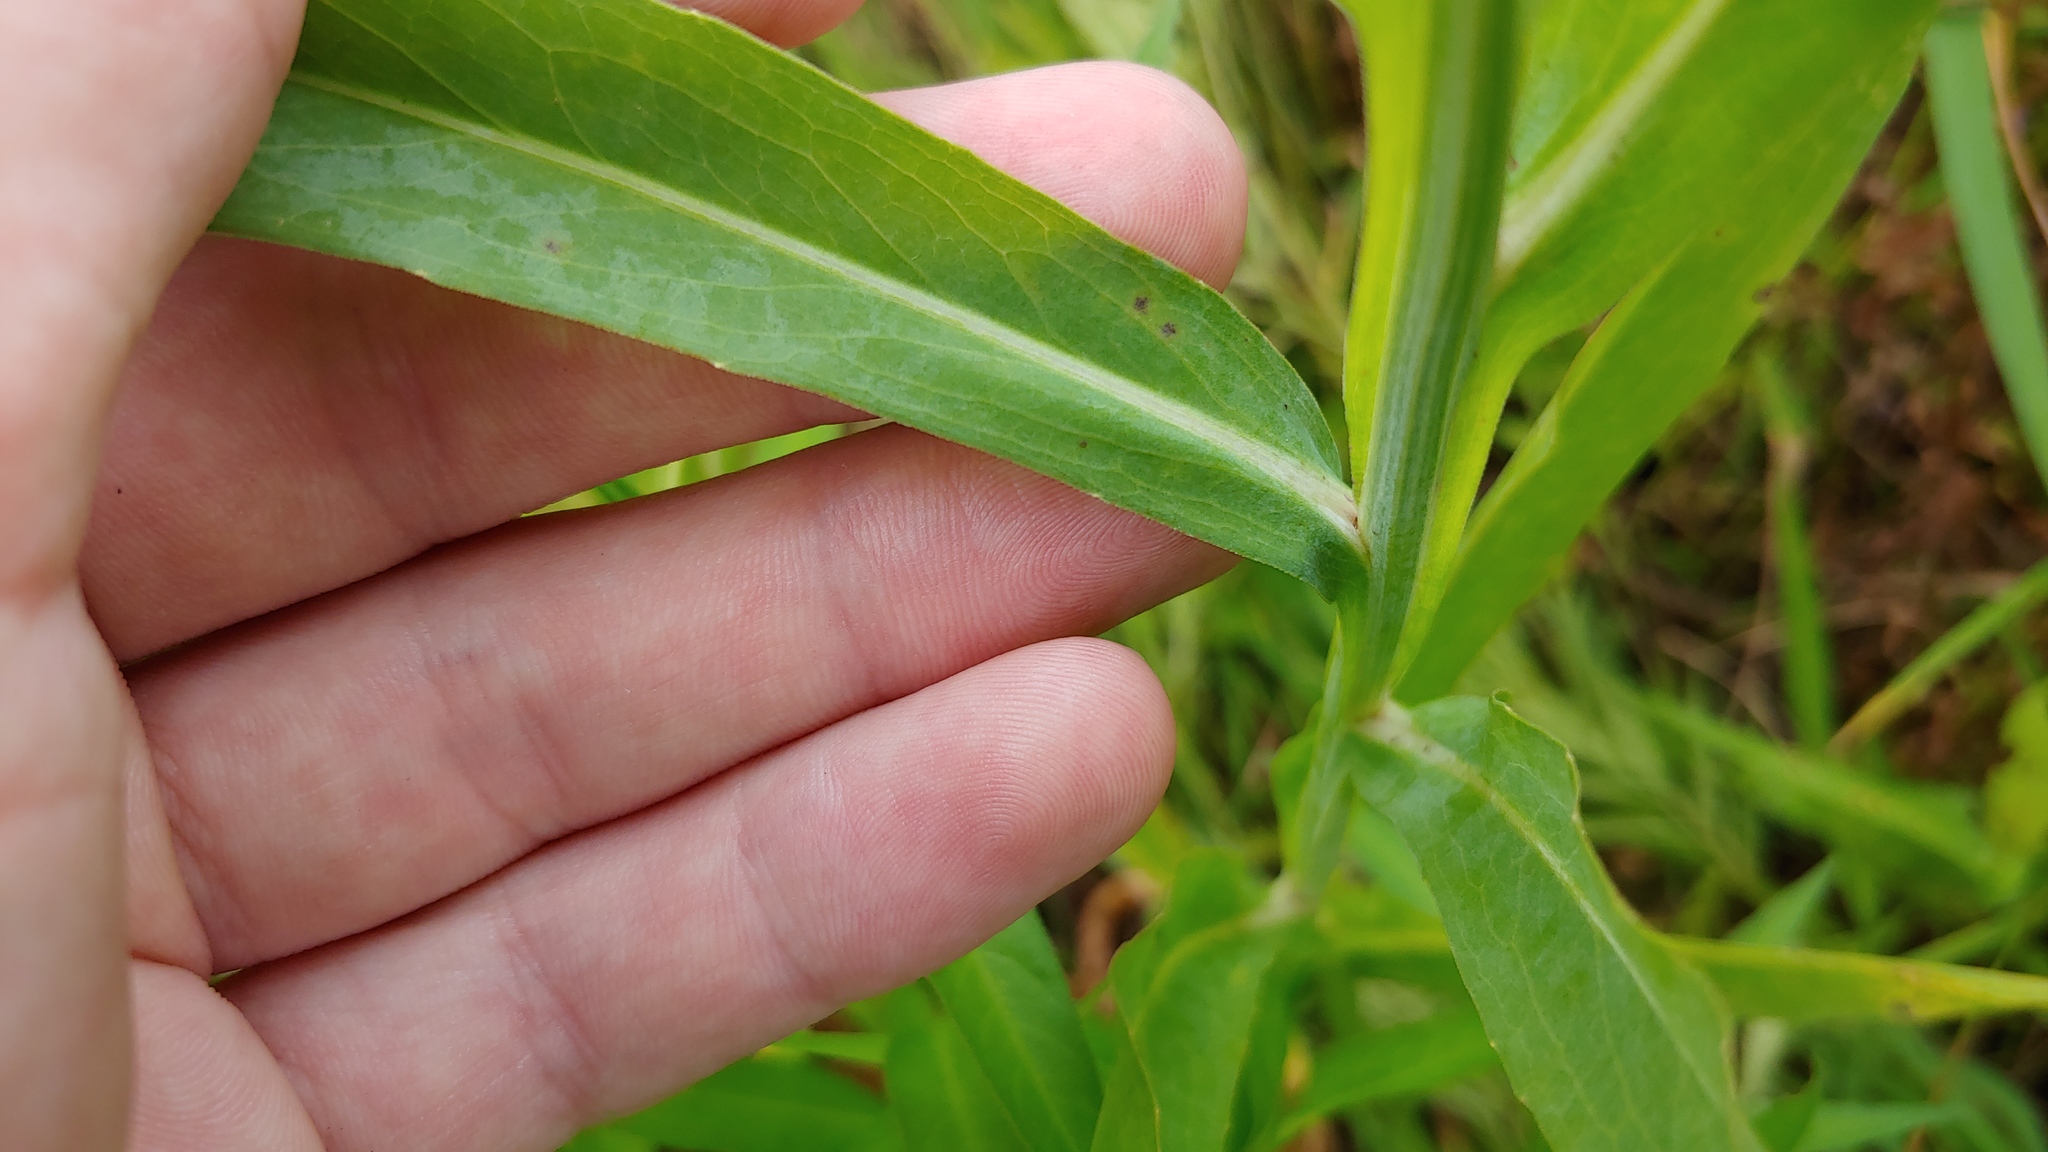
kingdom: Plantae
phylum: Tracheophyta
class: Magnoliopsida
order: Asterales
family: Asteraceae
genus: Boltonia
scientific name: Boltonia decurrens
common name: Decurrent false aster
